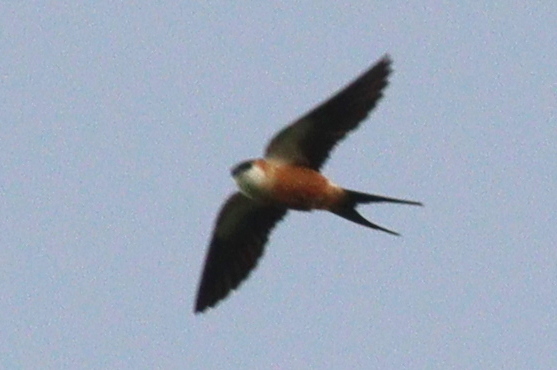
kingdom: Animalia
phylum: Chordata
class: Aves
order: Passeriformes
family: Hirundinidae
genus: Cecropis
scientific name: Cecropis senegalensis
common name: Mosque swallow
